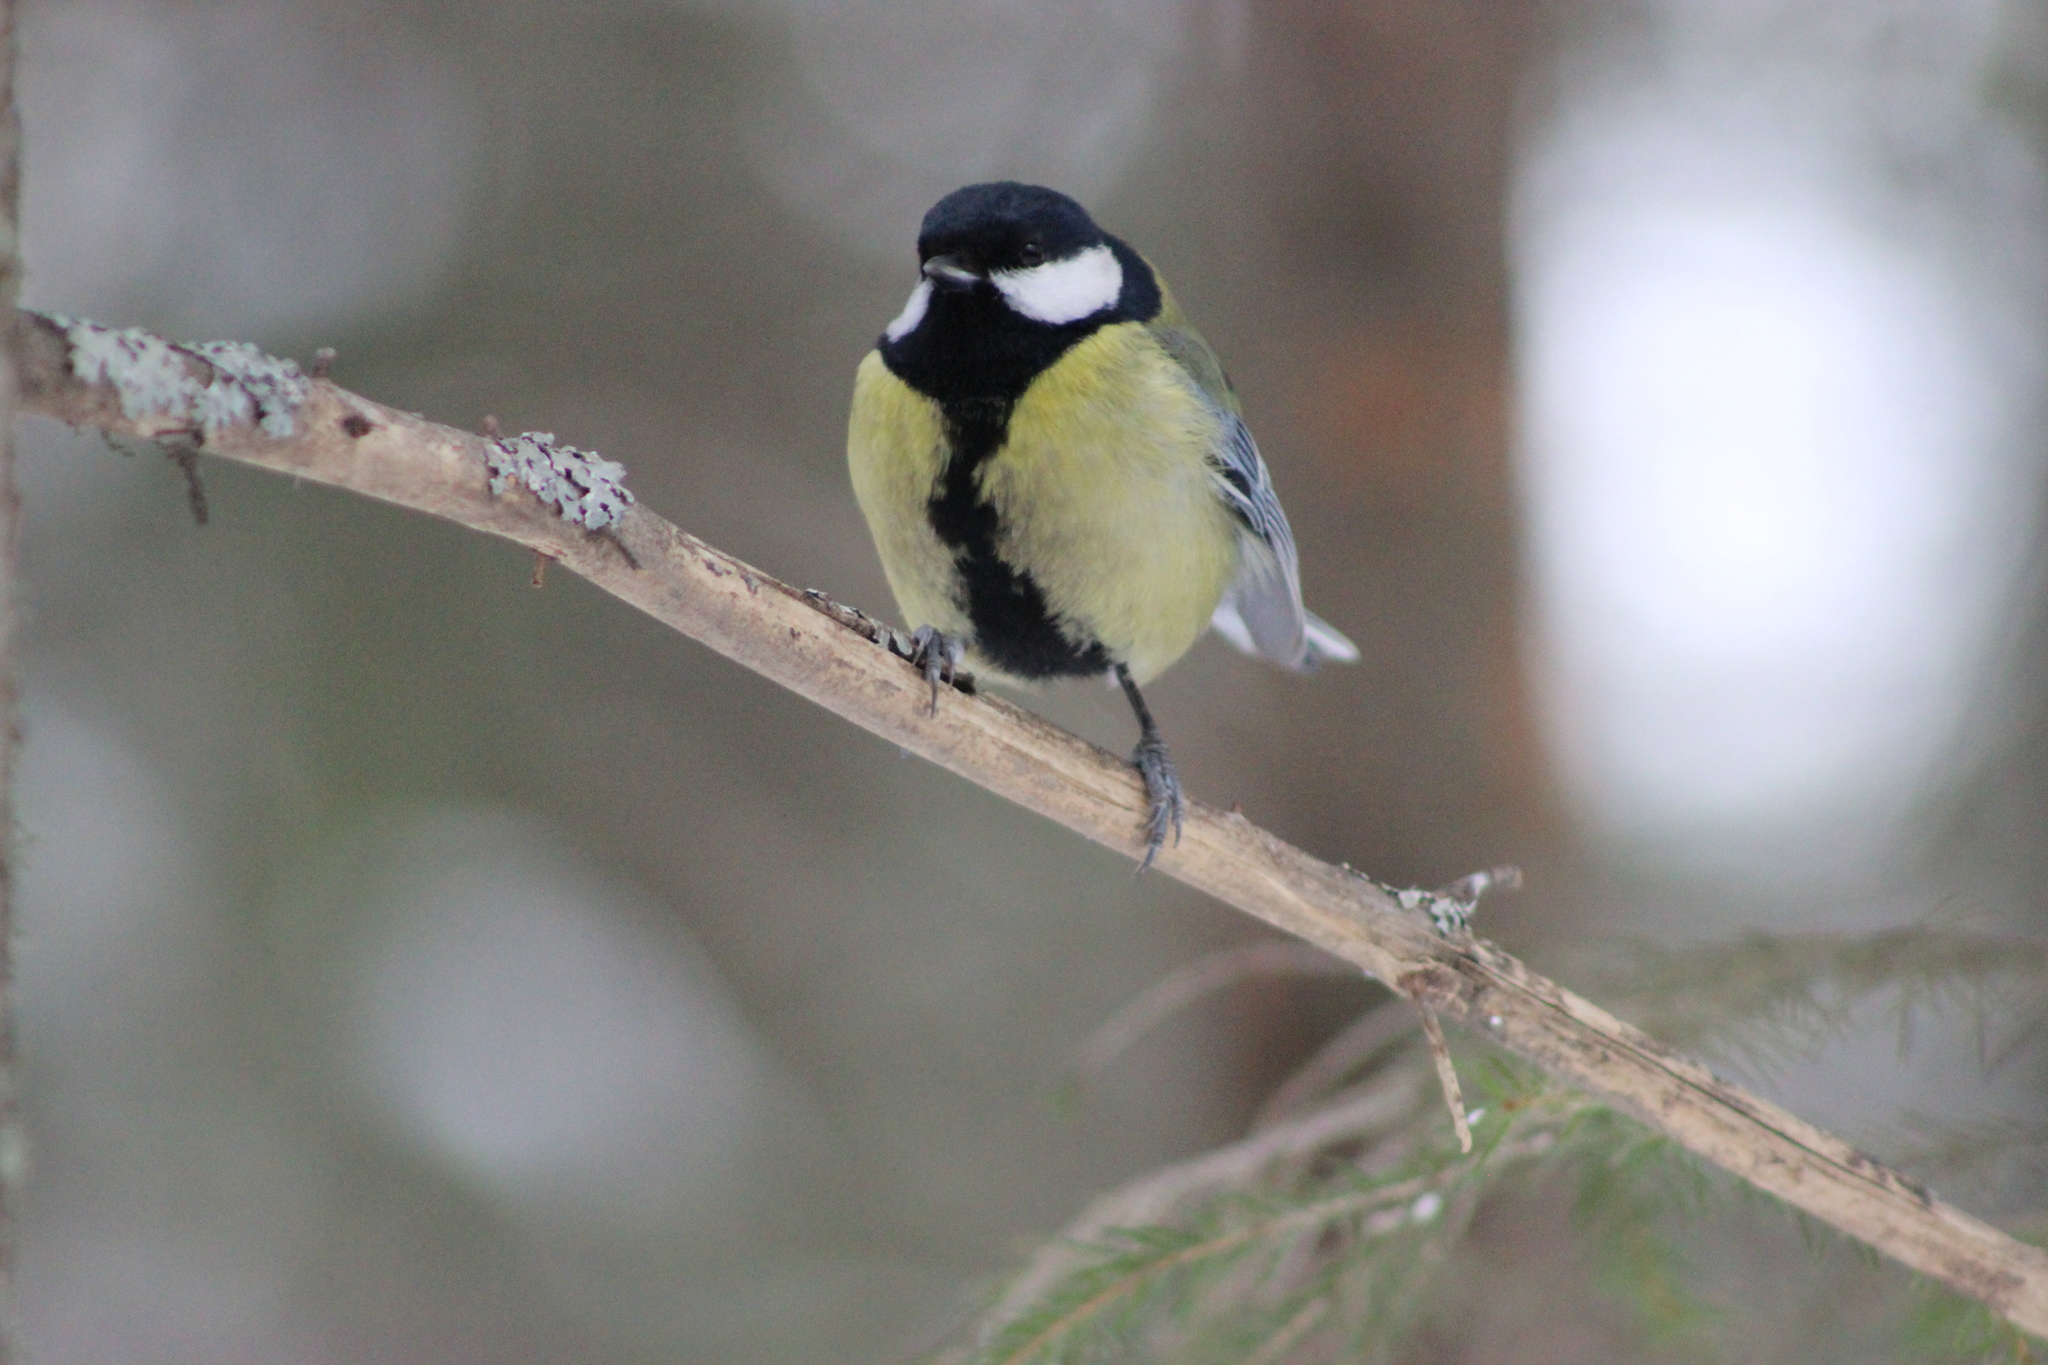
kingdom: Animalia
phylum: Chordata
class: Aves
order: Passeriformes
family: Paridae
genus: Parus
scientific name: Parus major
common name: Great tit
